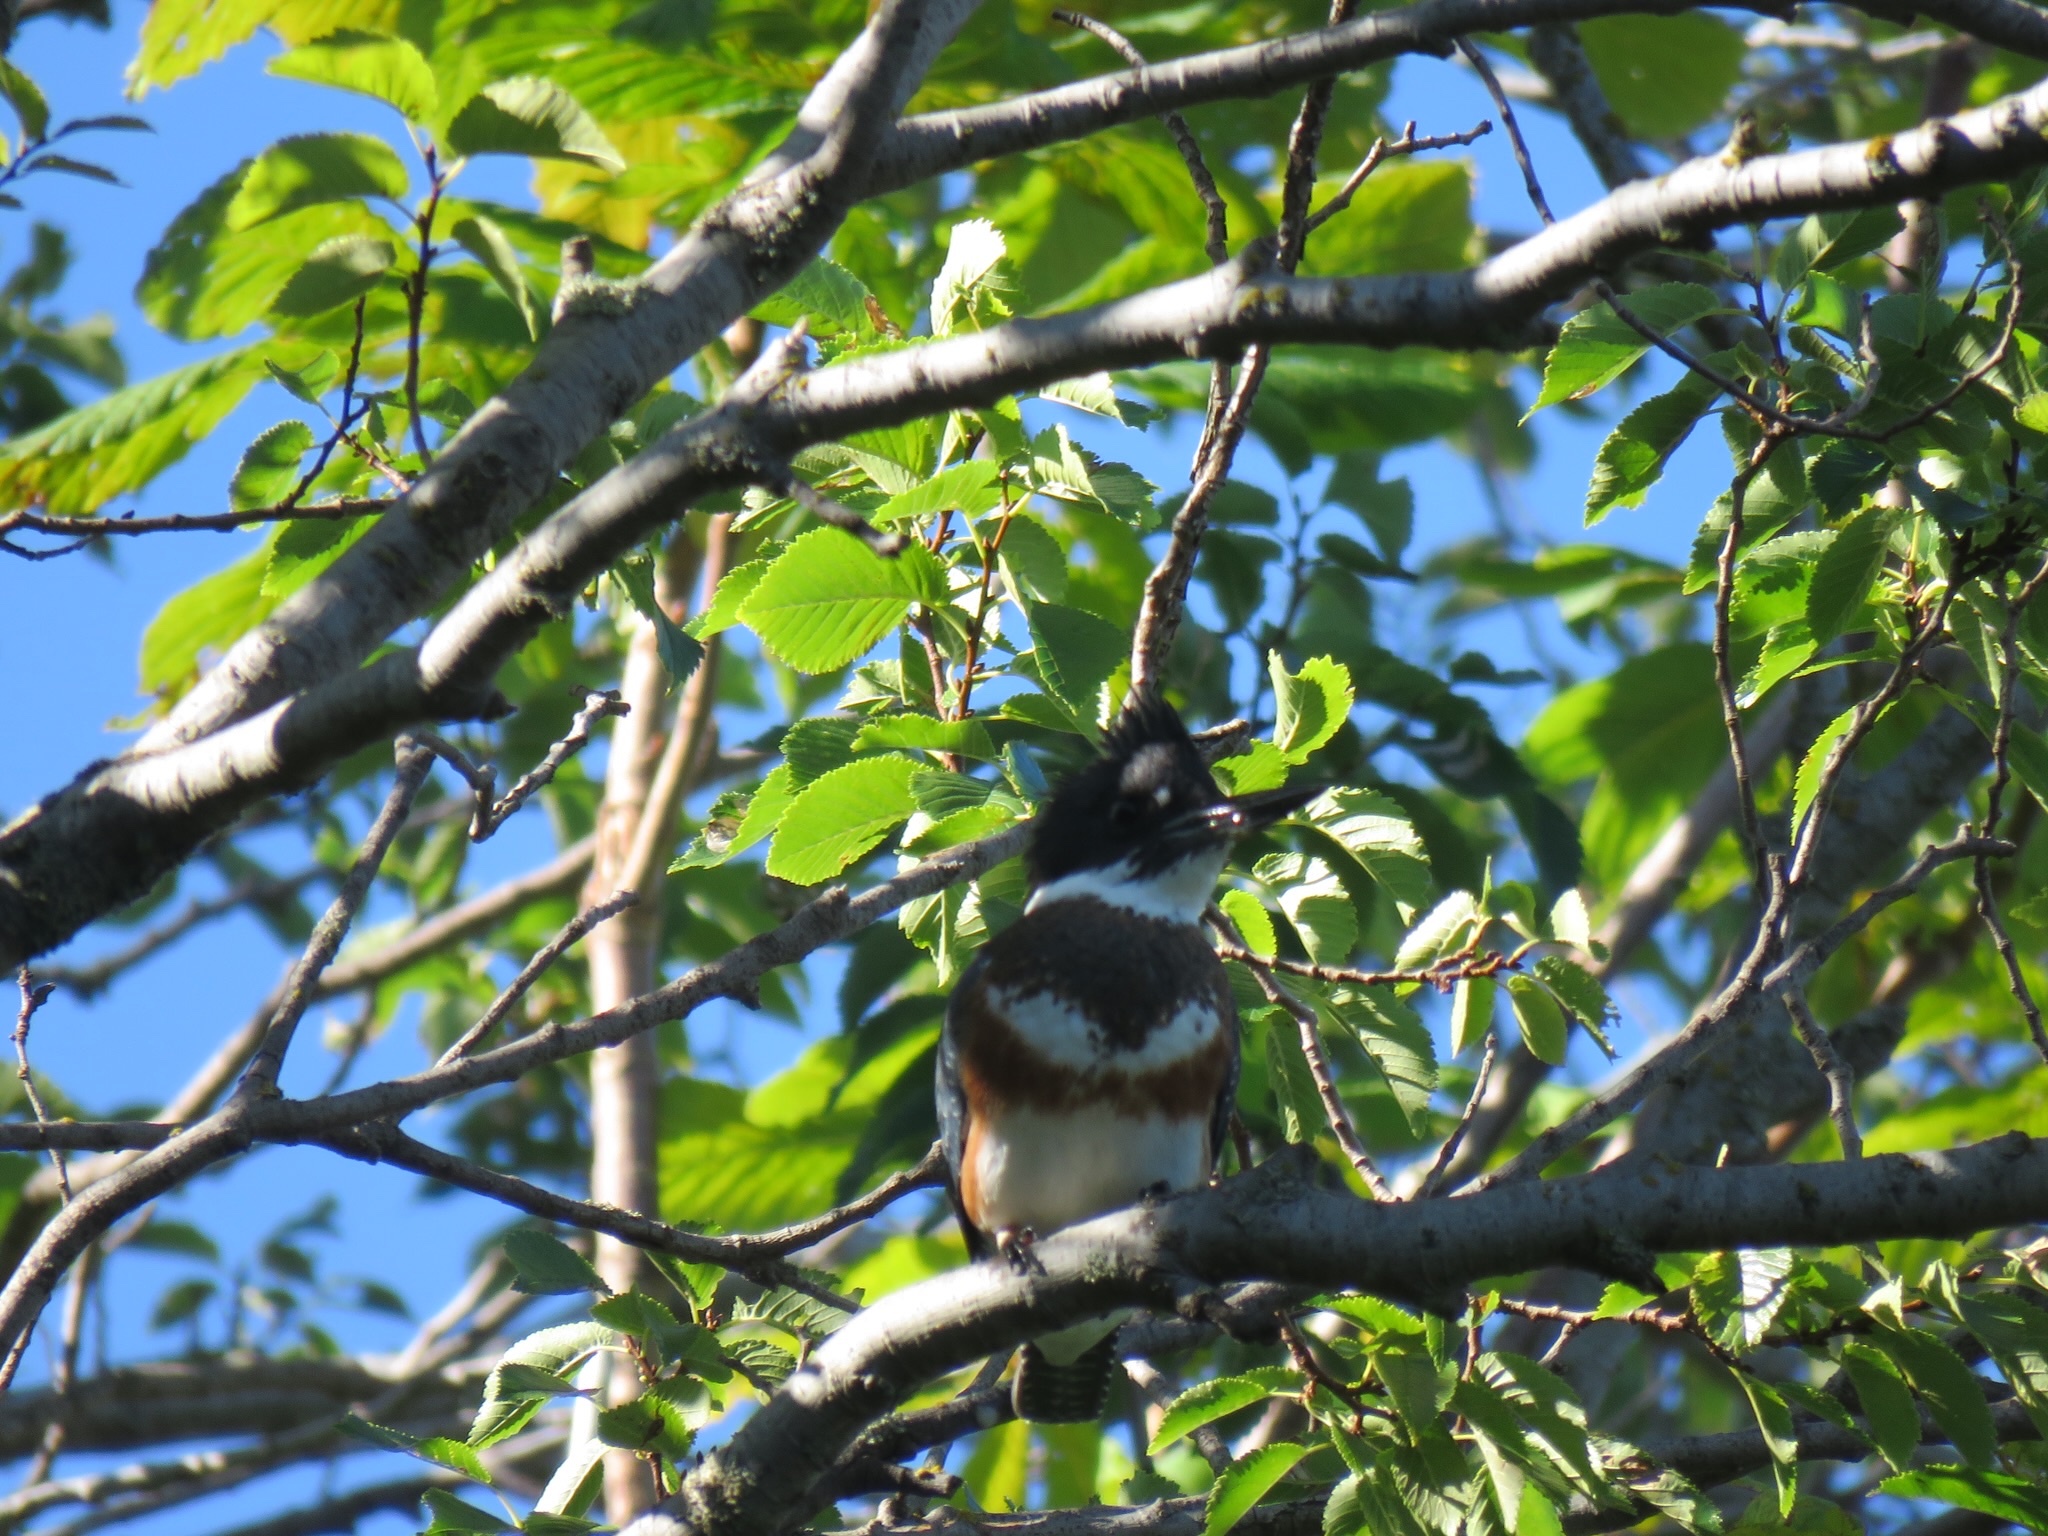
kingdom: Animalia
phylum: Chordata
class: Aves
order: Coraciiformes
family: Alcedinidae
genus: Megaceryle
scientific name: Megaceryle alcyon
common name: Belted kingfisher
